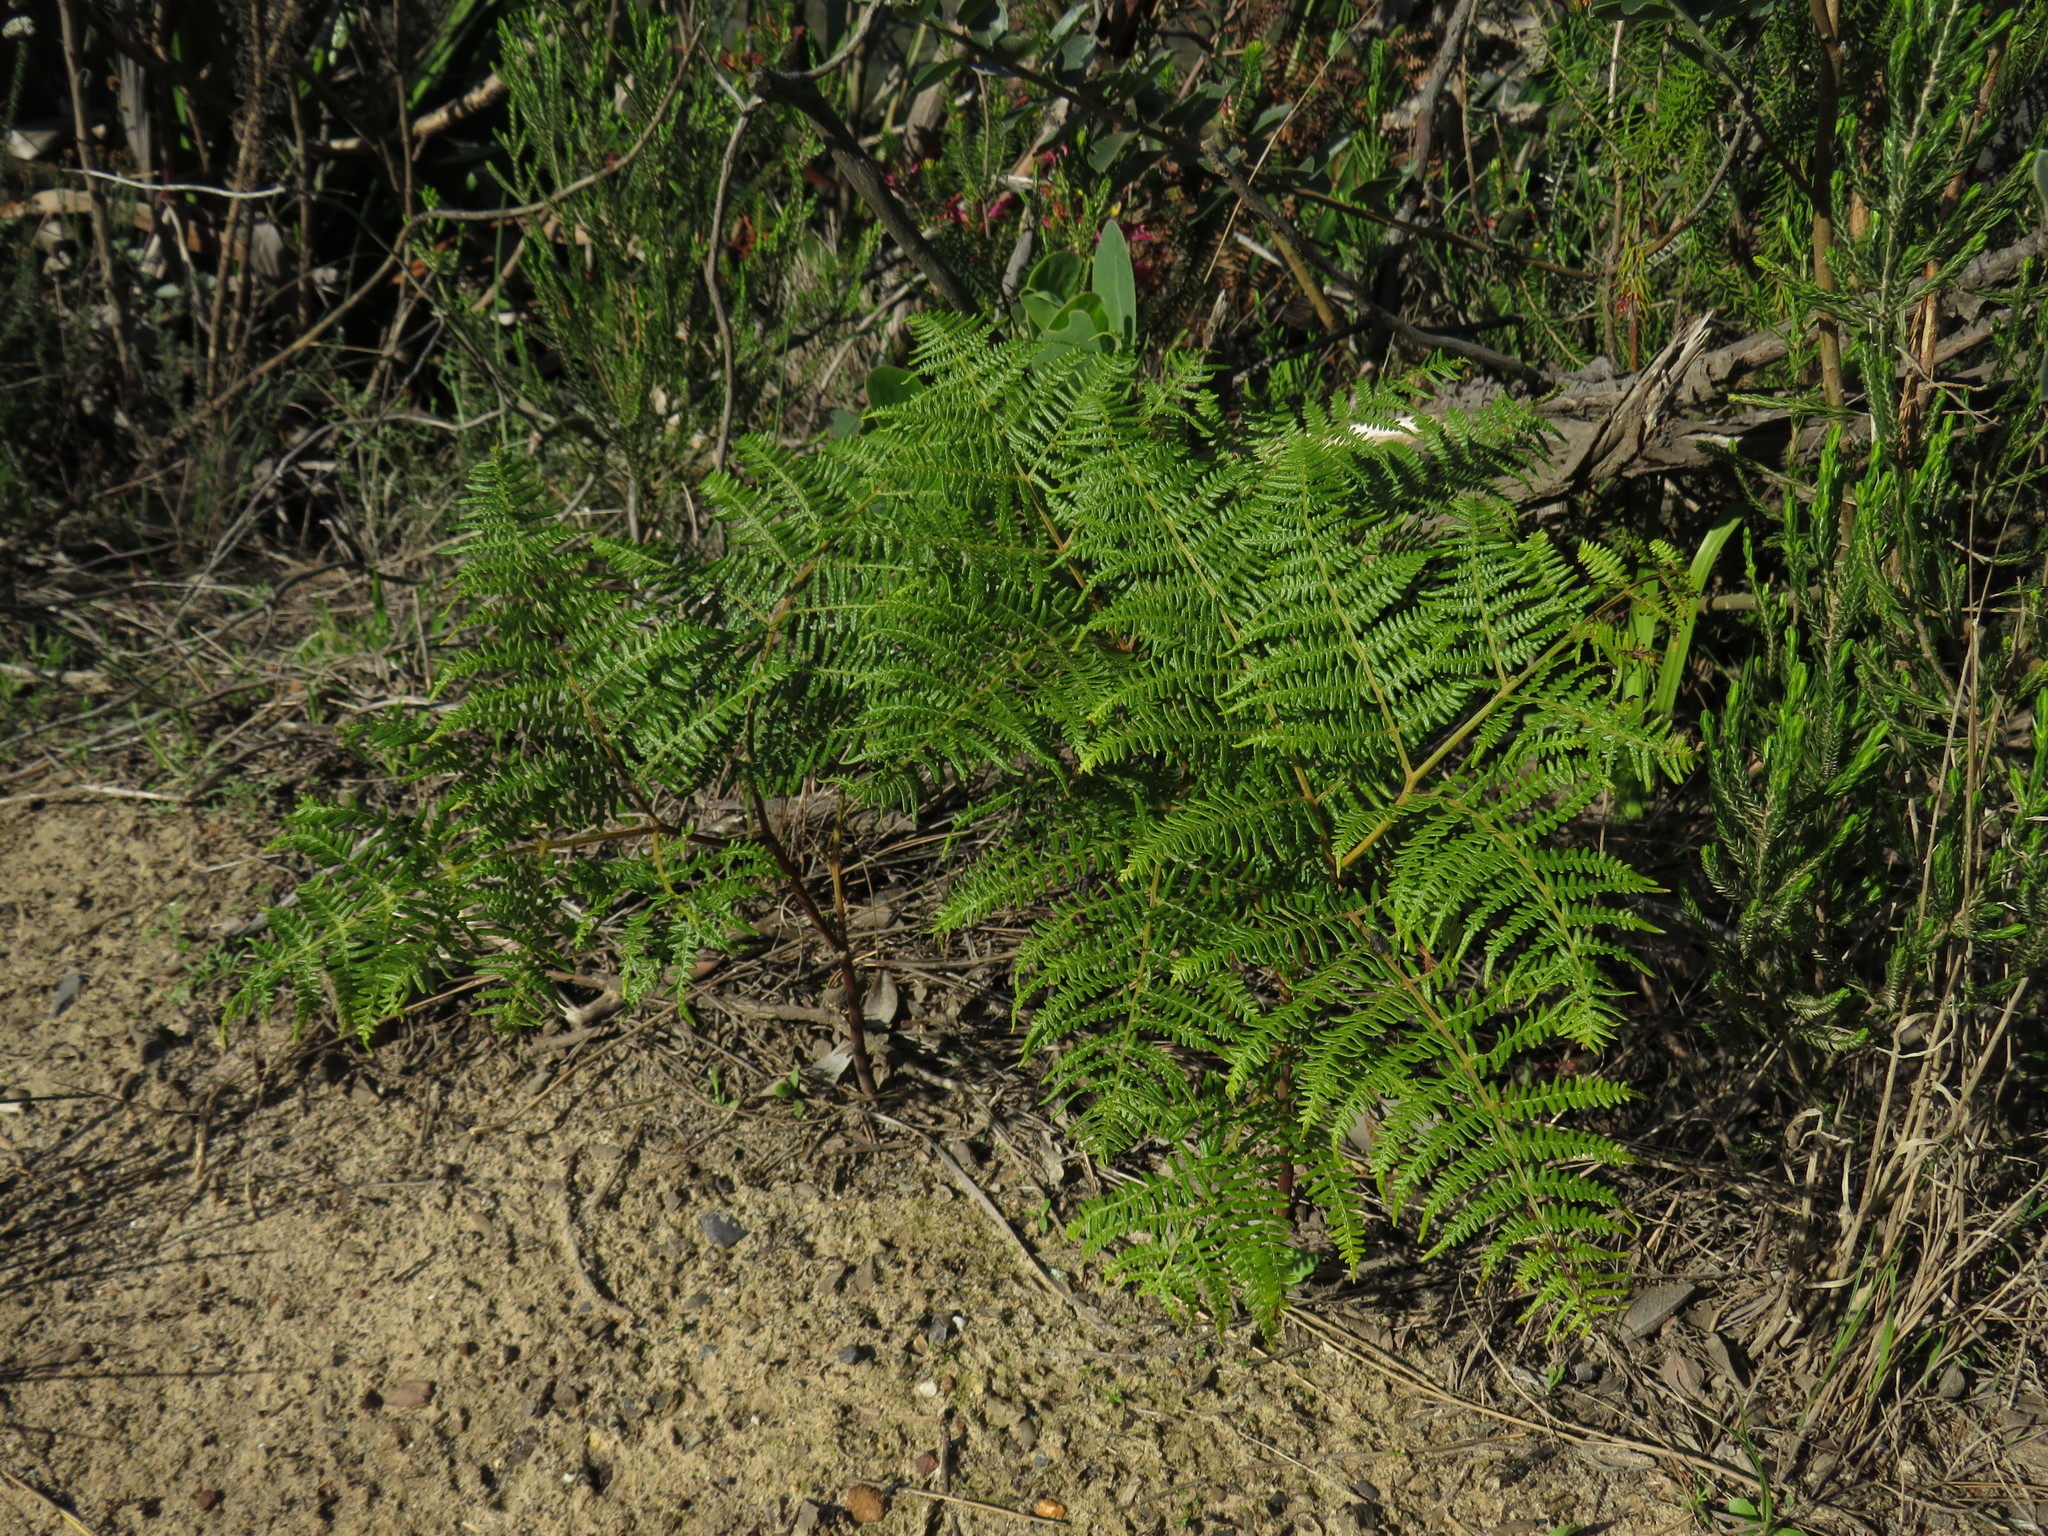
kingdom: Plantae
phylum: Tracheophyta
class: Polypodiopsida
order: Polypodiales
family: Dennstaedtiaceae
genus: Pteridium
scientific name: Pteridium aquilinum
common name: Bracken
